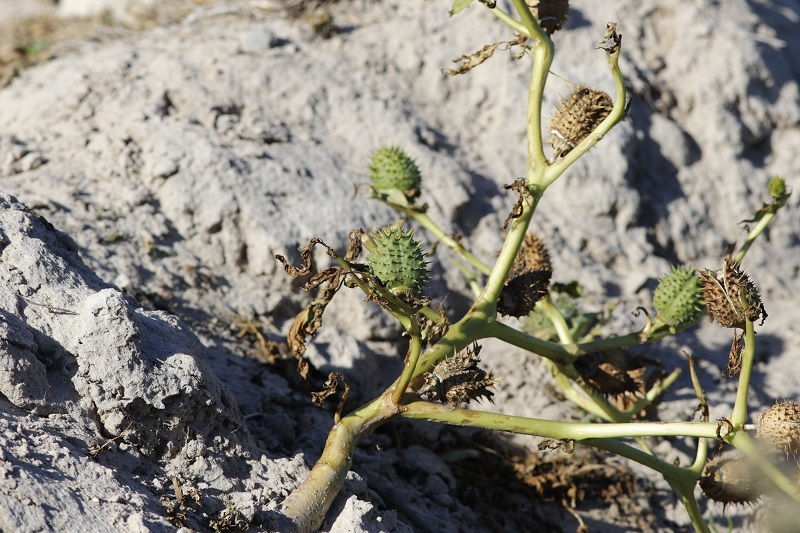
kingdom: Plantae
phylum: Tracheophyta
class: Magnoliopsida
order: Solanales
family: Solanaceae
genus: Datura
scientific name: Datura stramonium
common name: Thorn-apple
